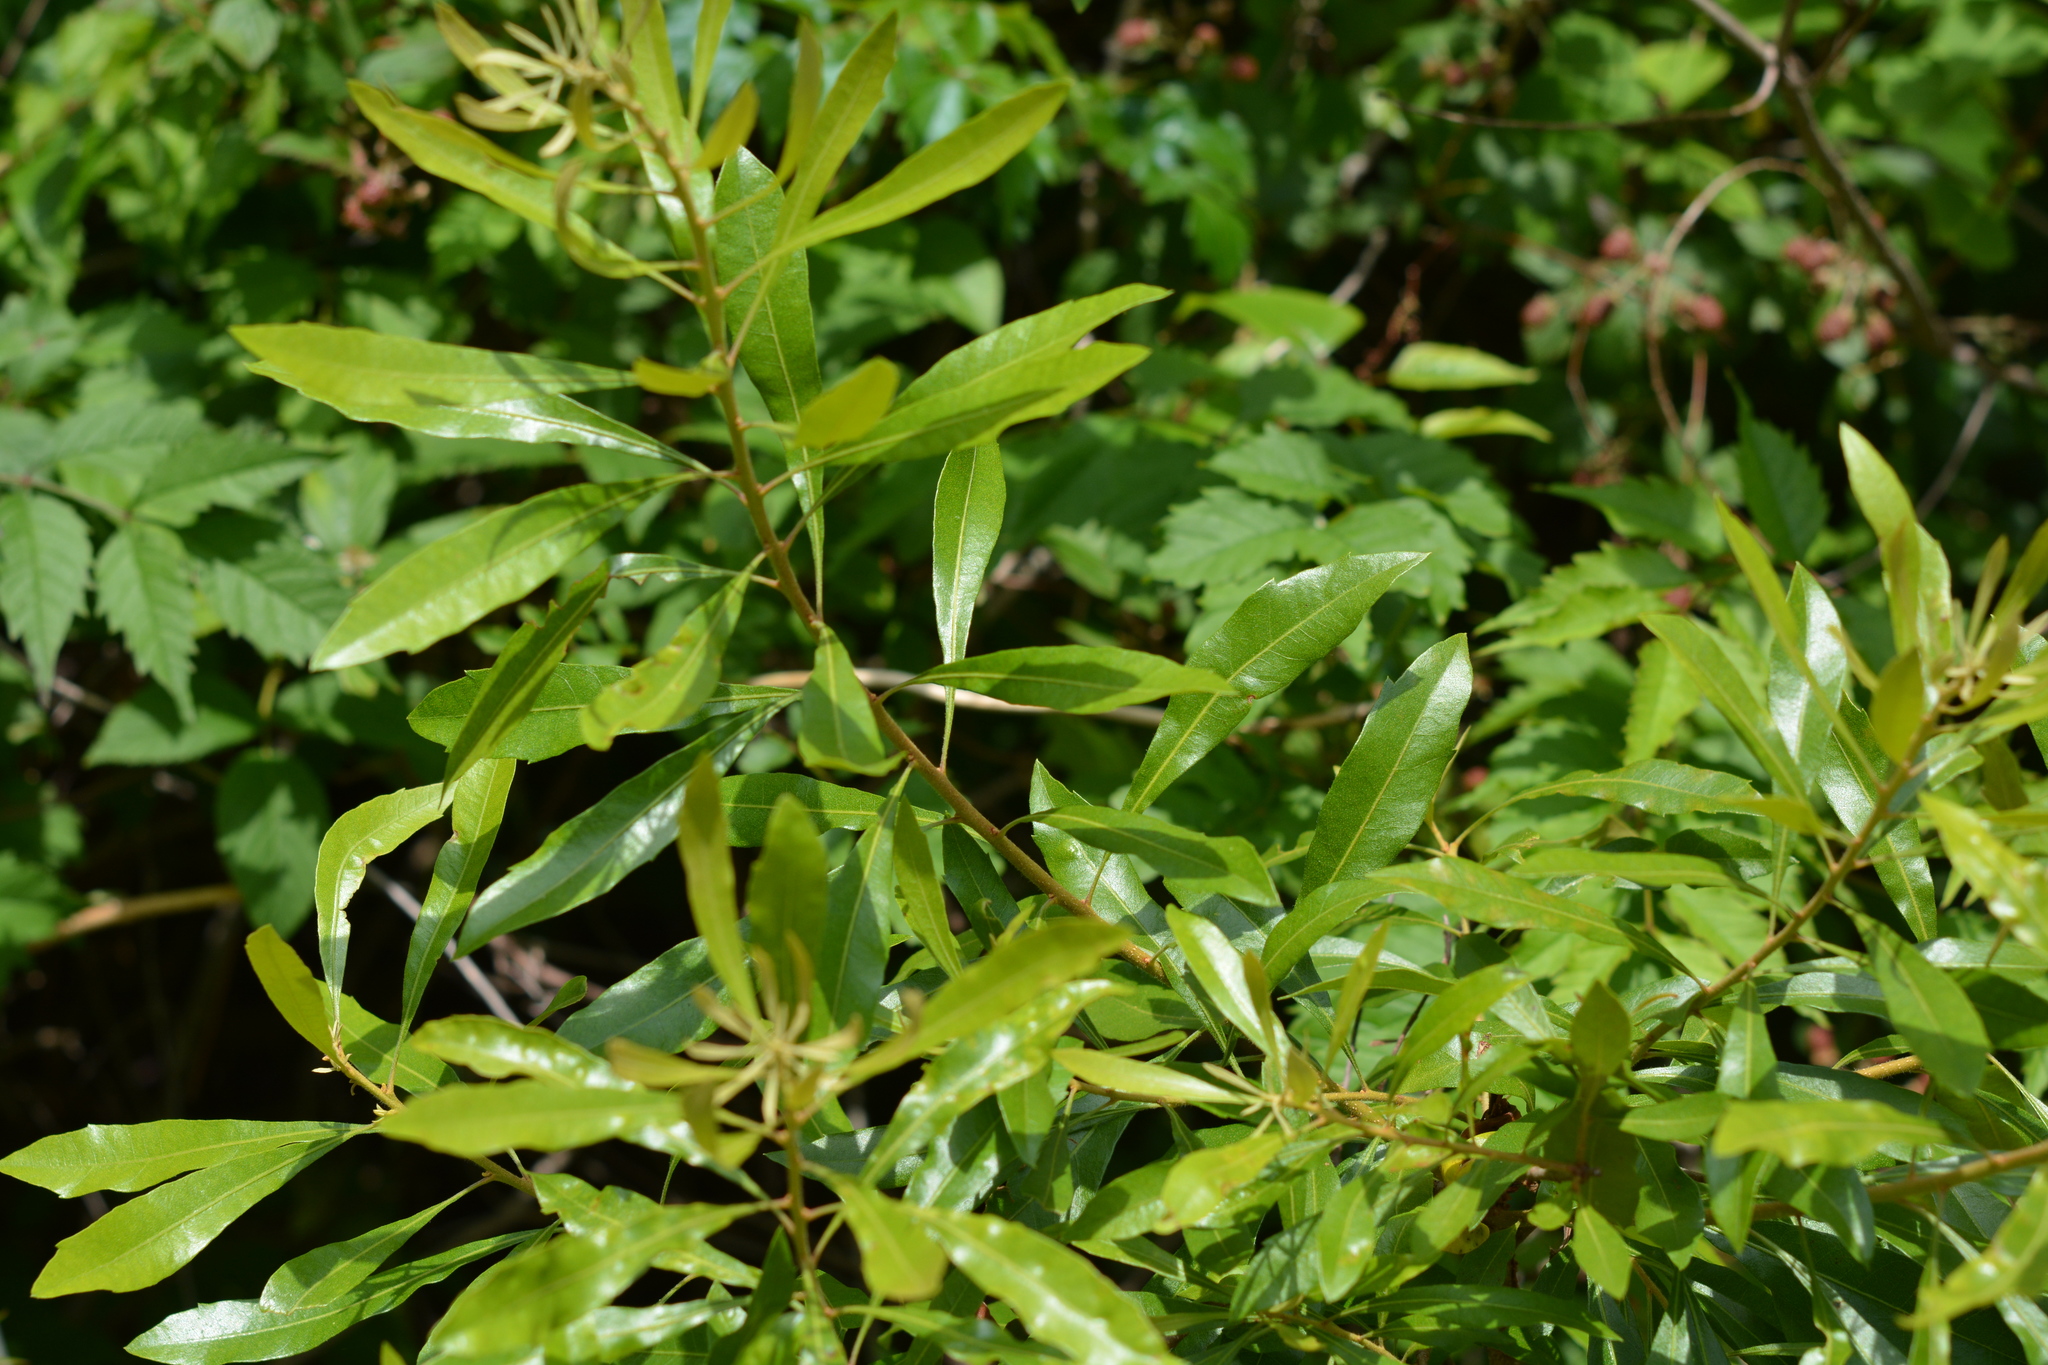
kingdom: Plantae
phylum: Tracheophyta
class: Magnoliopsida
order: Fagales
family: Myricaceae
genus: Morella
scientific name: Morella cerifera
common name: Wax myrtle
